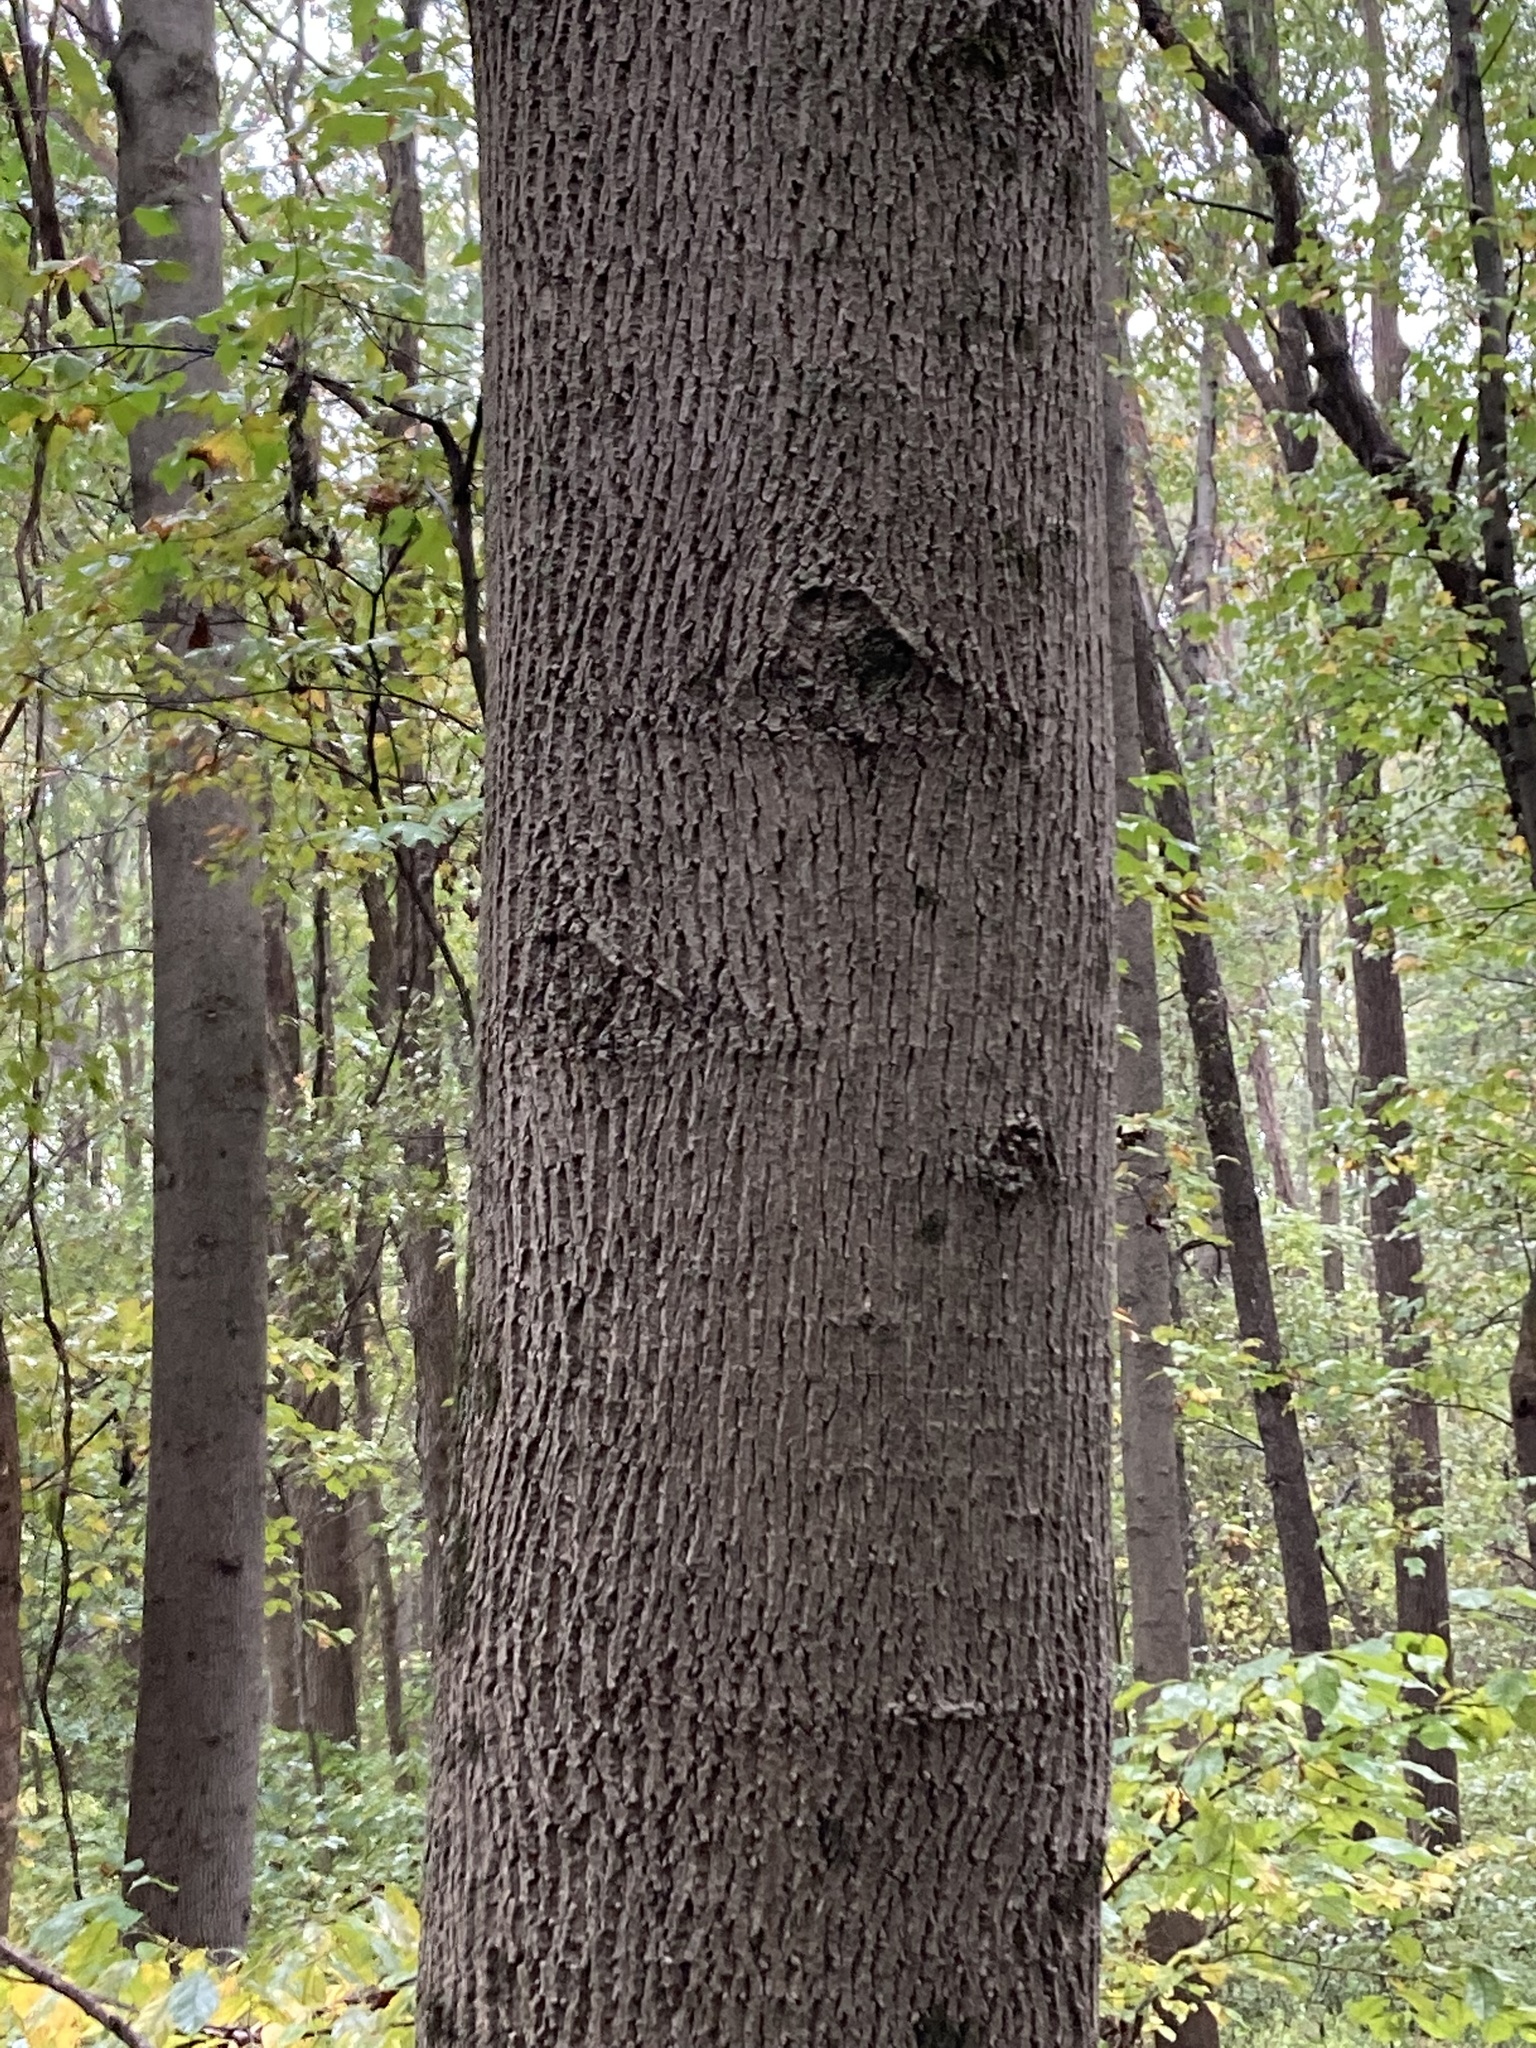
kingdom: Plantae
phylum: Tracheophyta
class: Magnoliopsida
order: Magnoliales
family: Magnoliaceae
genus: Liriodendron
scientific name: Liriodendron tulipifera
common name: Tulip tree
